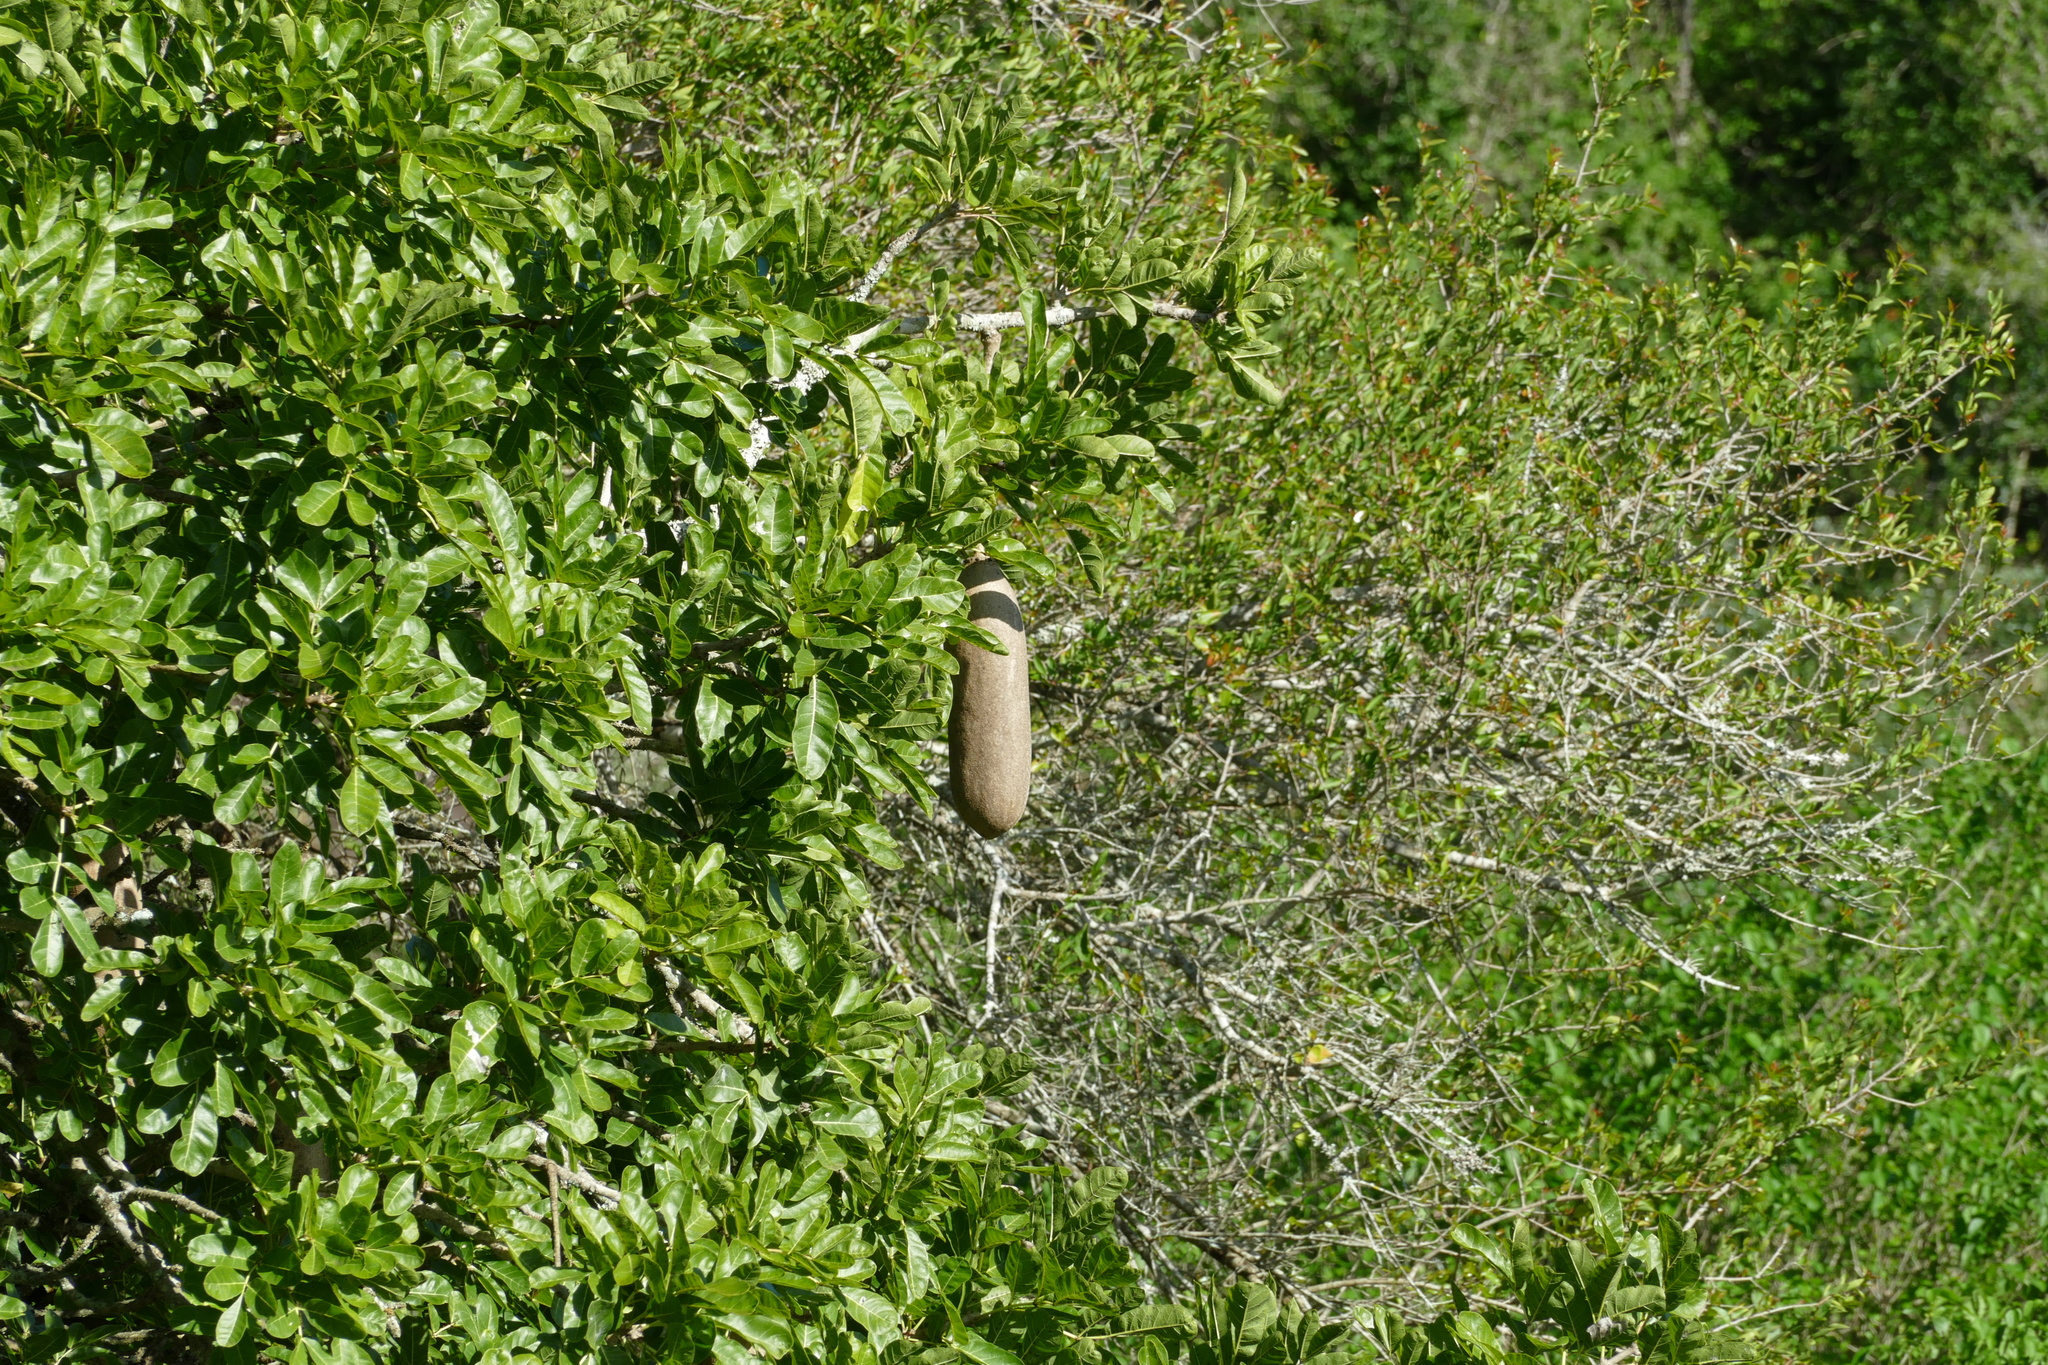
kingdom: Plantae
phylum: Tracheophyta
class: Magnoliopsida
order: Lamiales
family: Bignoniaceae
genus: Kigelia
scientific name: Kigelia africana
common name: Sausage tree
